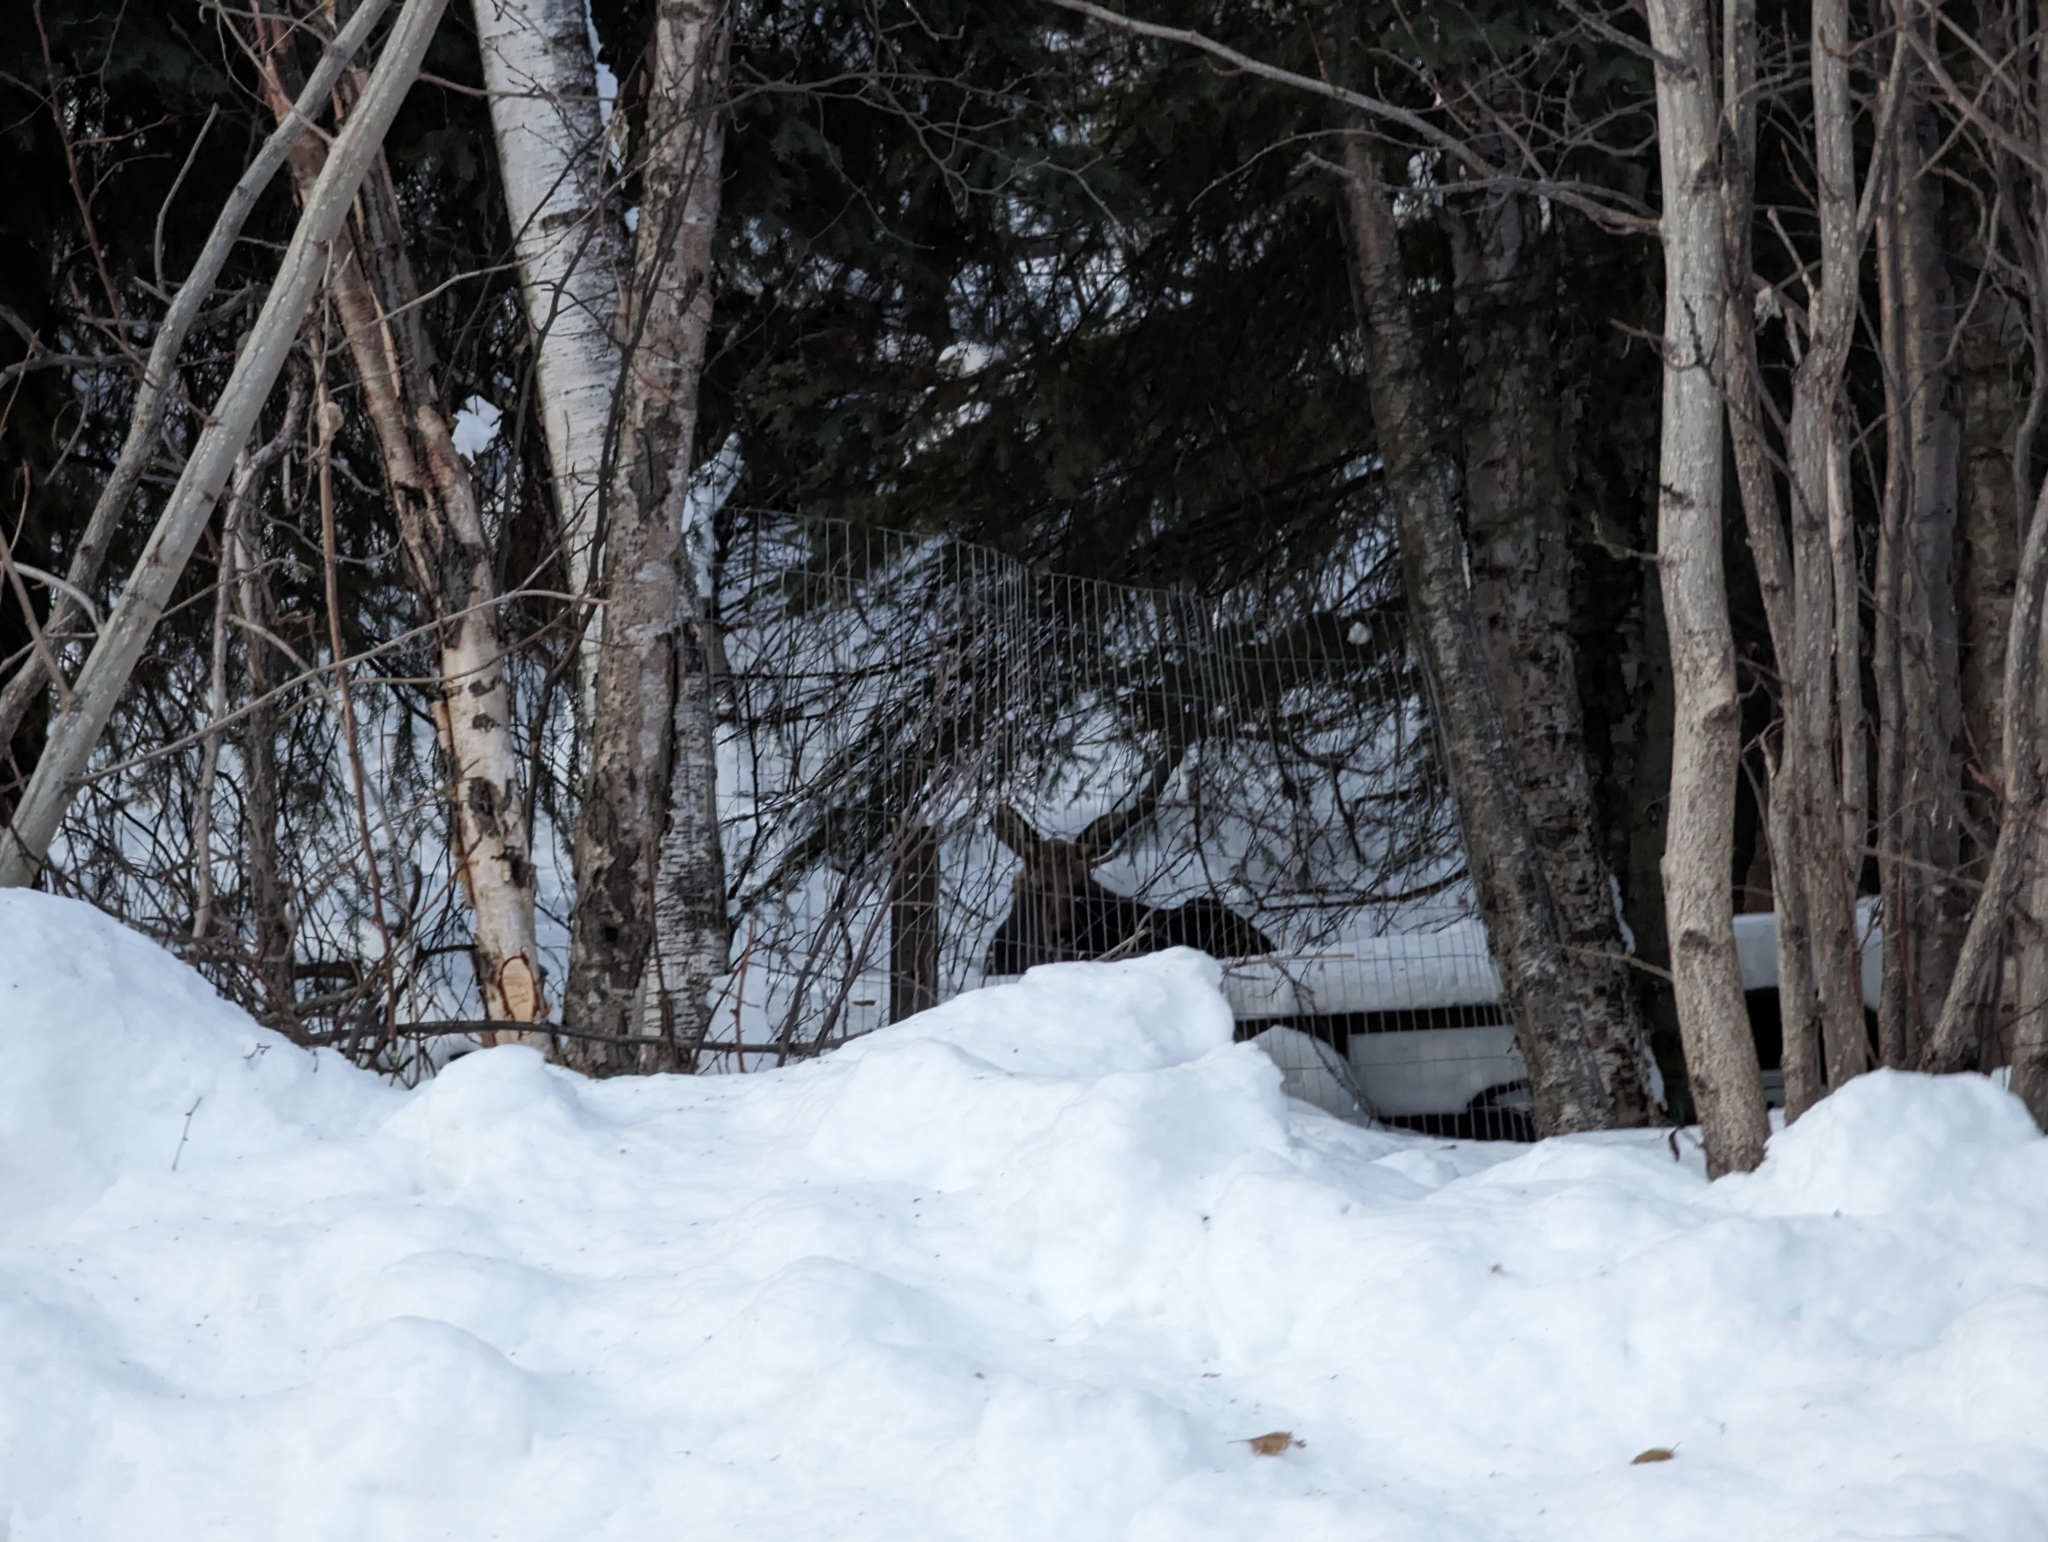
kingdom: Animalia
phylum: Chordata
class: Mammalia
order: Artiodactyla
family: Cervidae
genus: Alces
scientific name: Alces alces
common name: Moose
